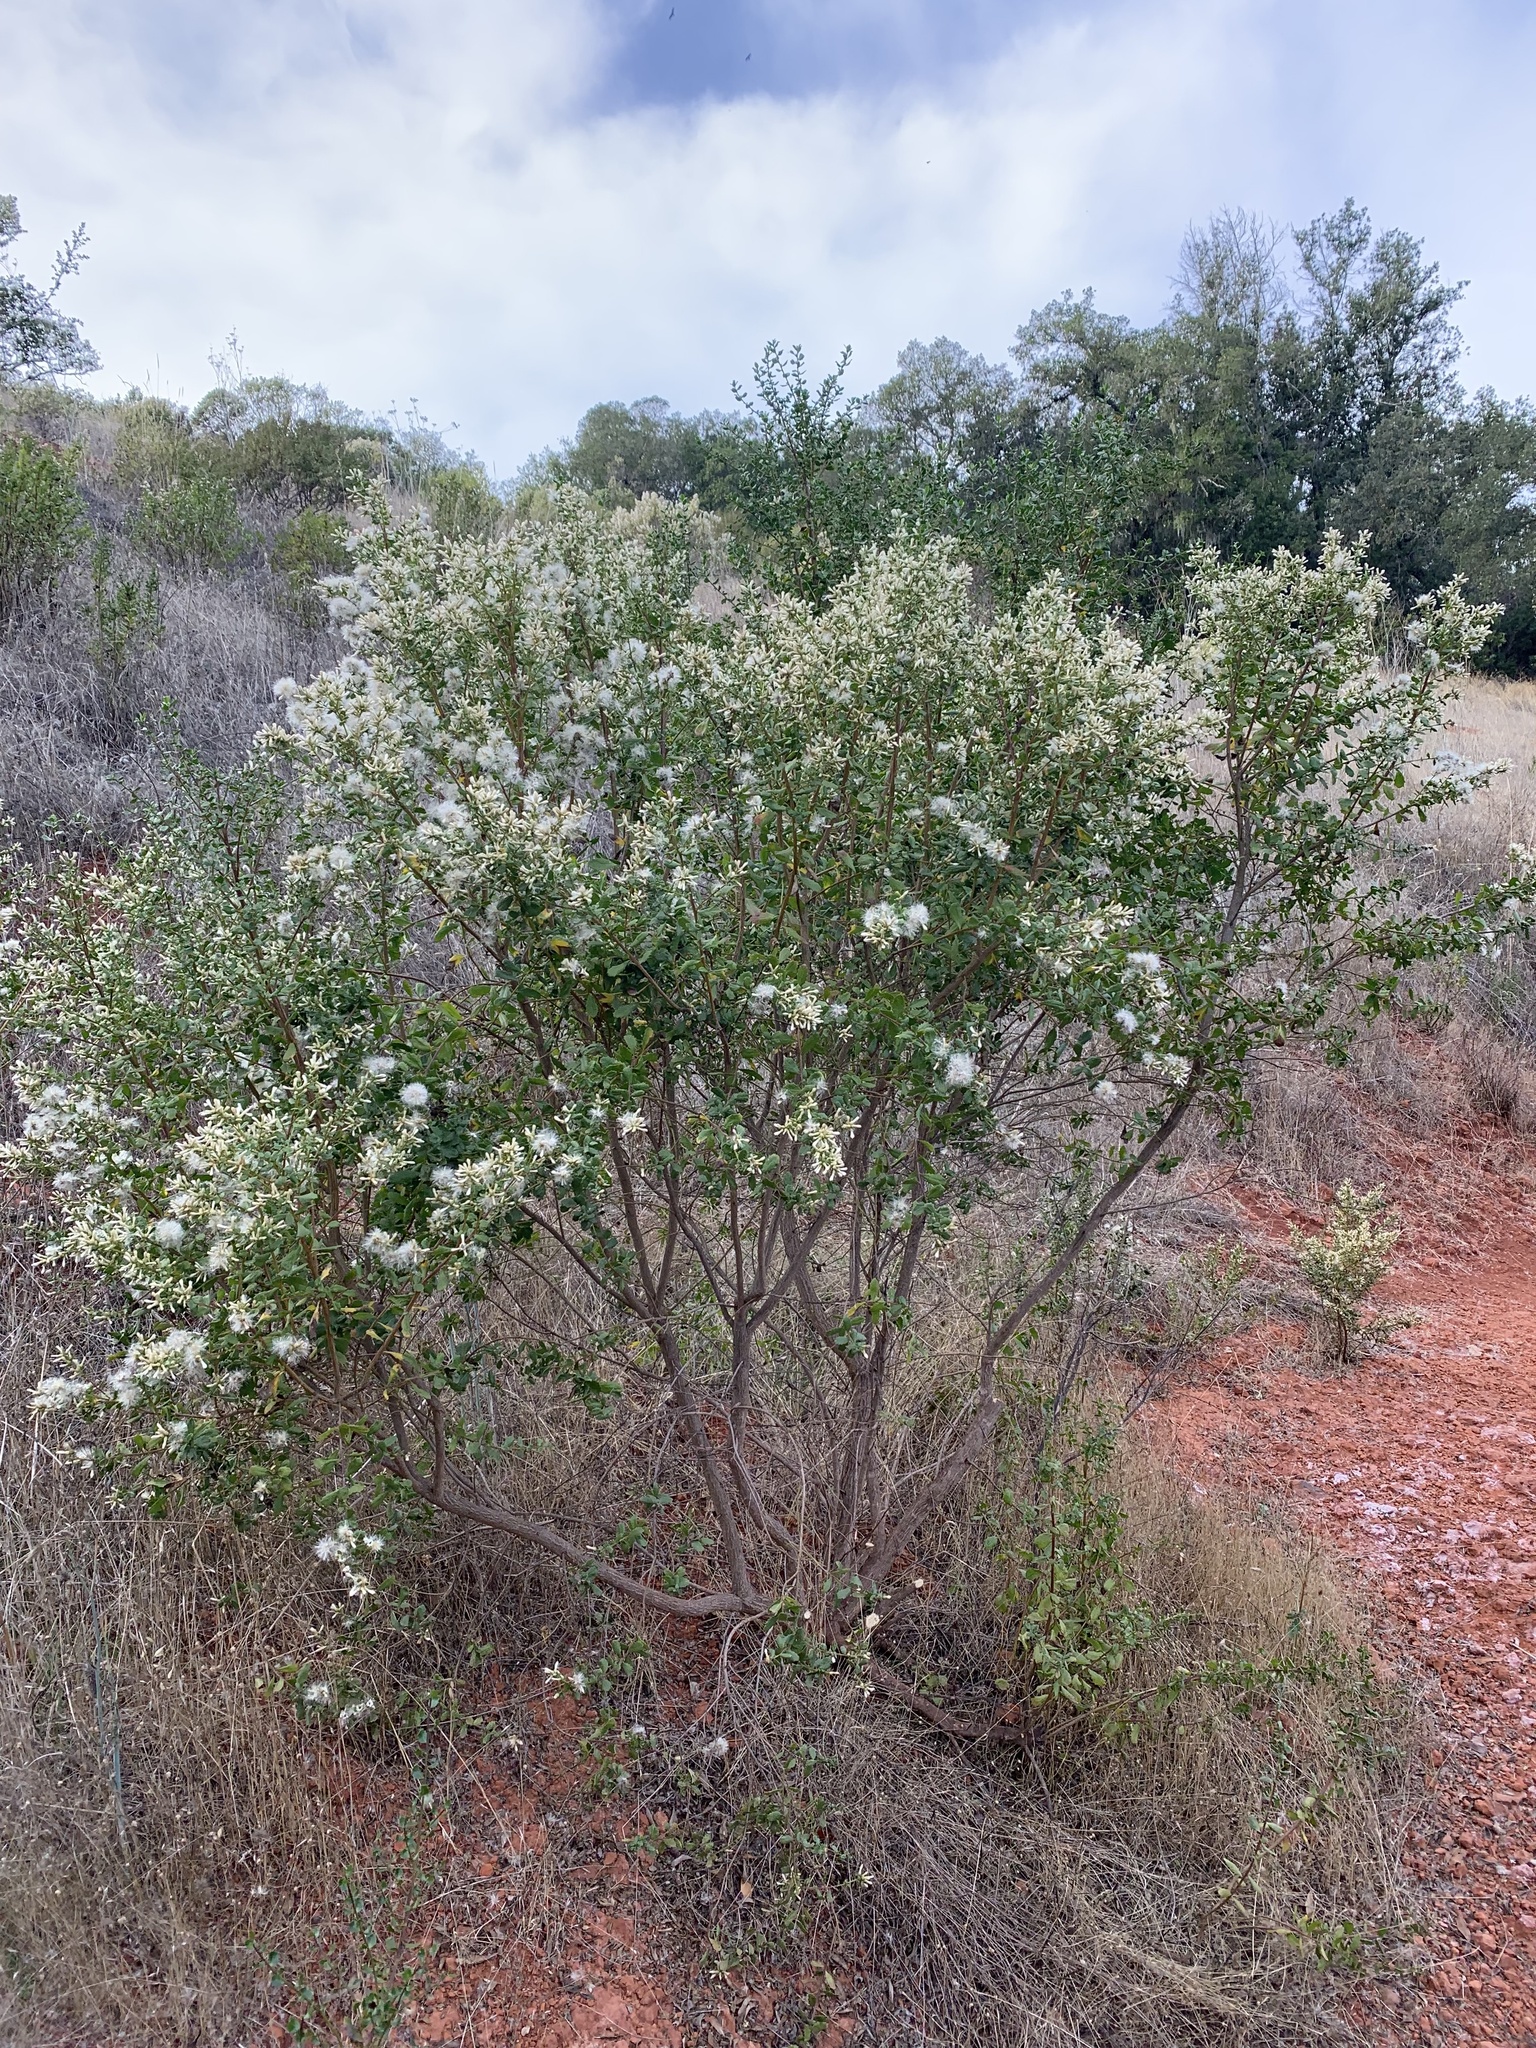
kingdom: Plantae
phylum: Tracheophyta
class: Magnoliopsida
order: Asterales
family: Asteraceae
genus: Baccharis
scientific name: Baccharis pilularis
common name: Coyotebrush
